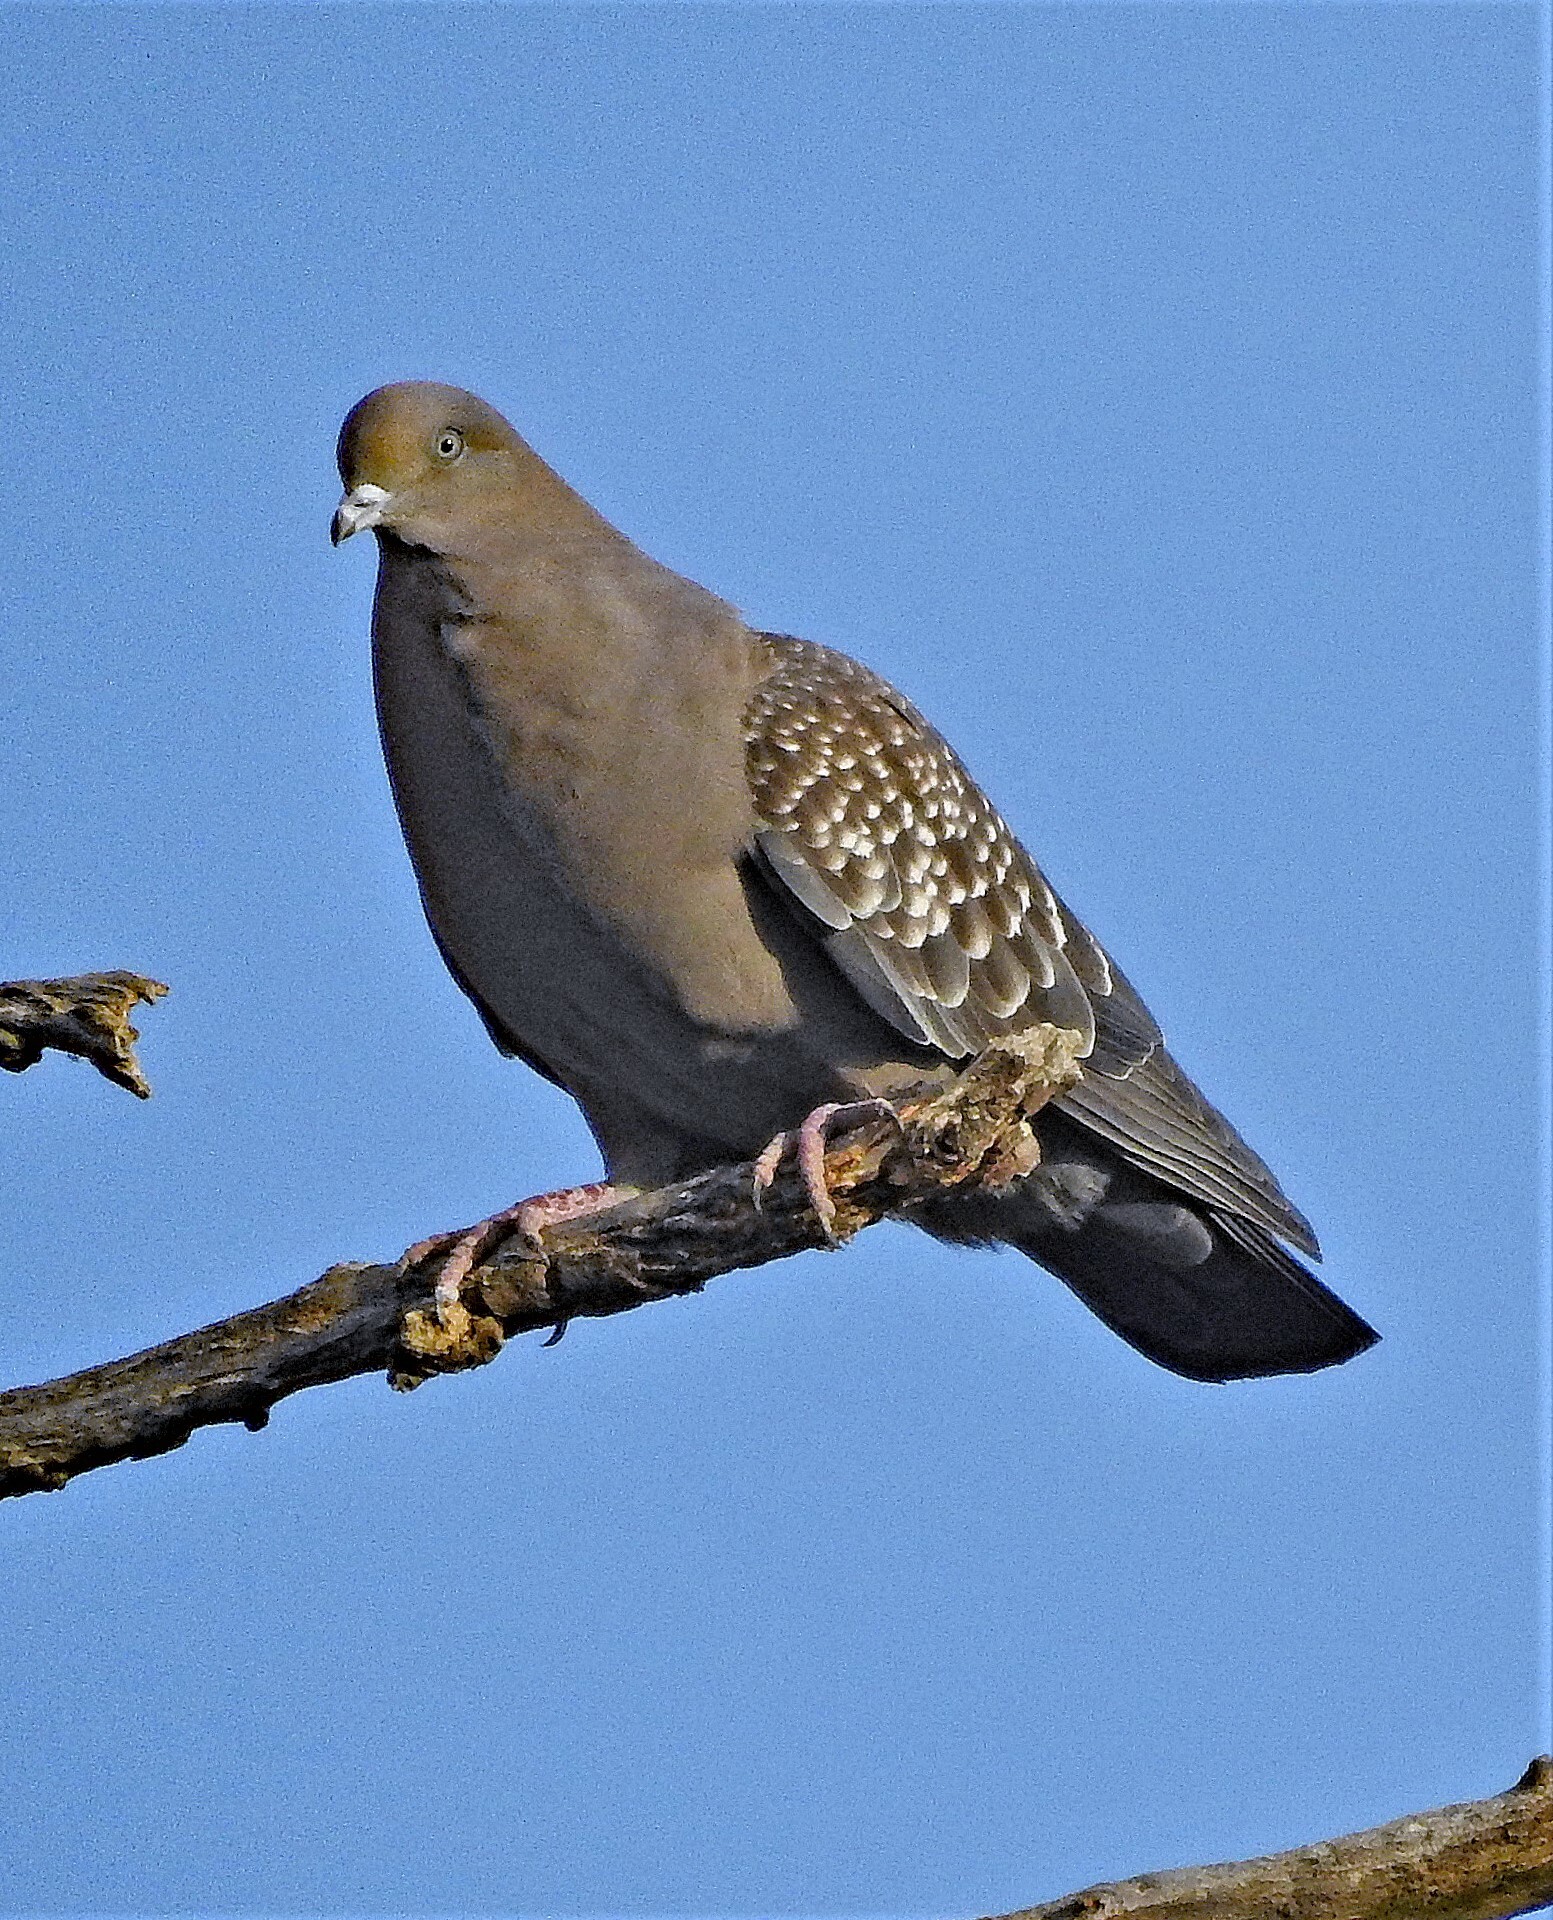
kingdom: Animalia
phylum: Chordata
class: Aves
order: Columbiformes
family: Columbidae
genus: Patagioenas
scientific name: Patagioenas maculosa
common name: Spot-winged pigeon
